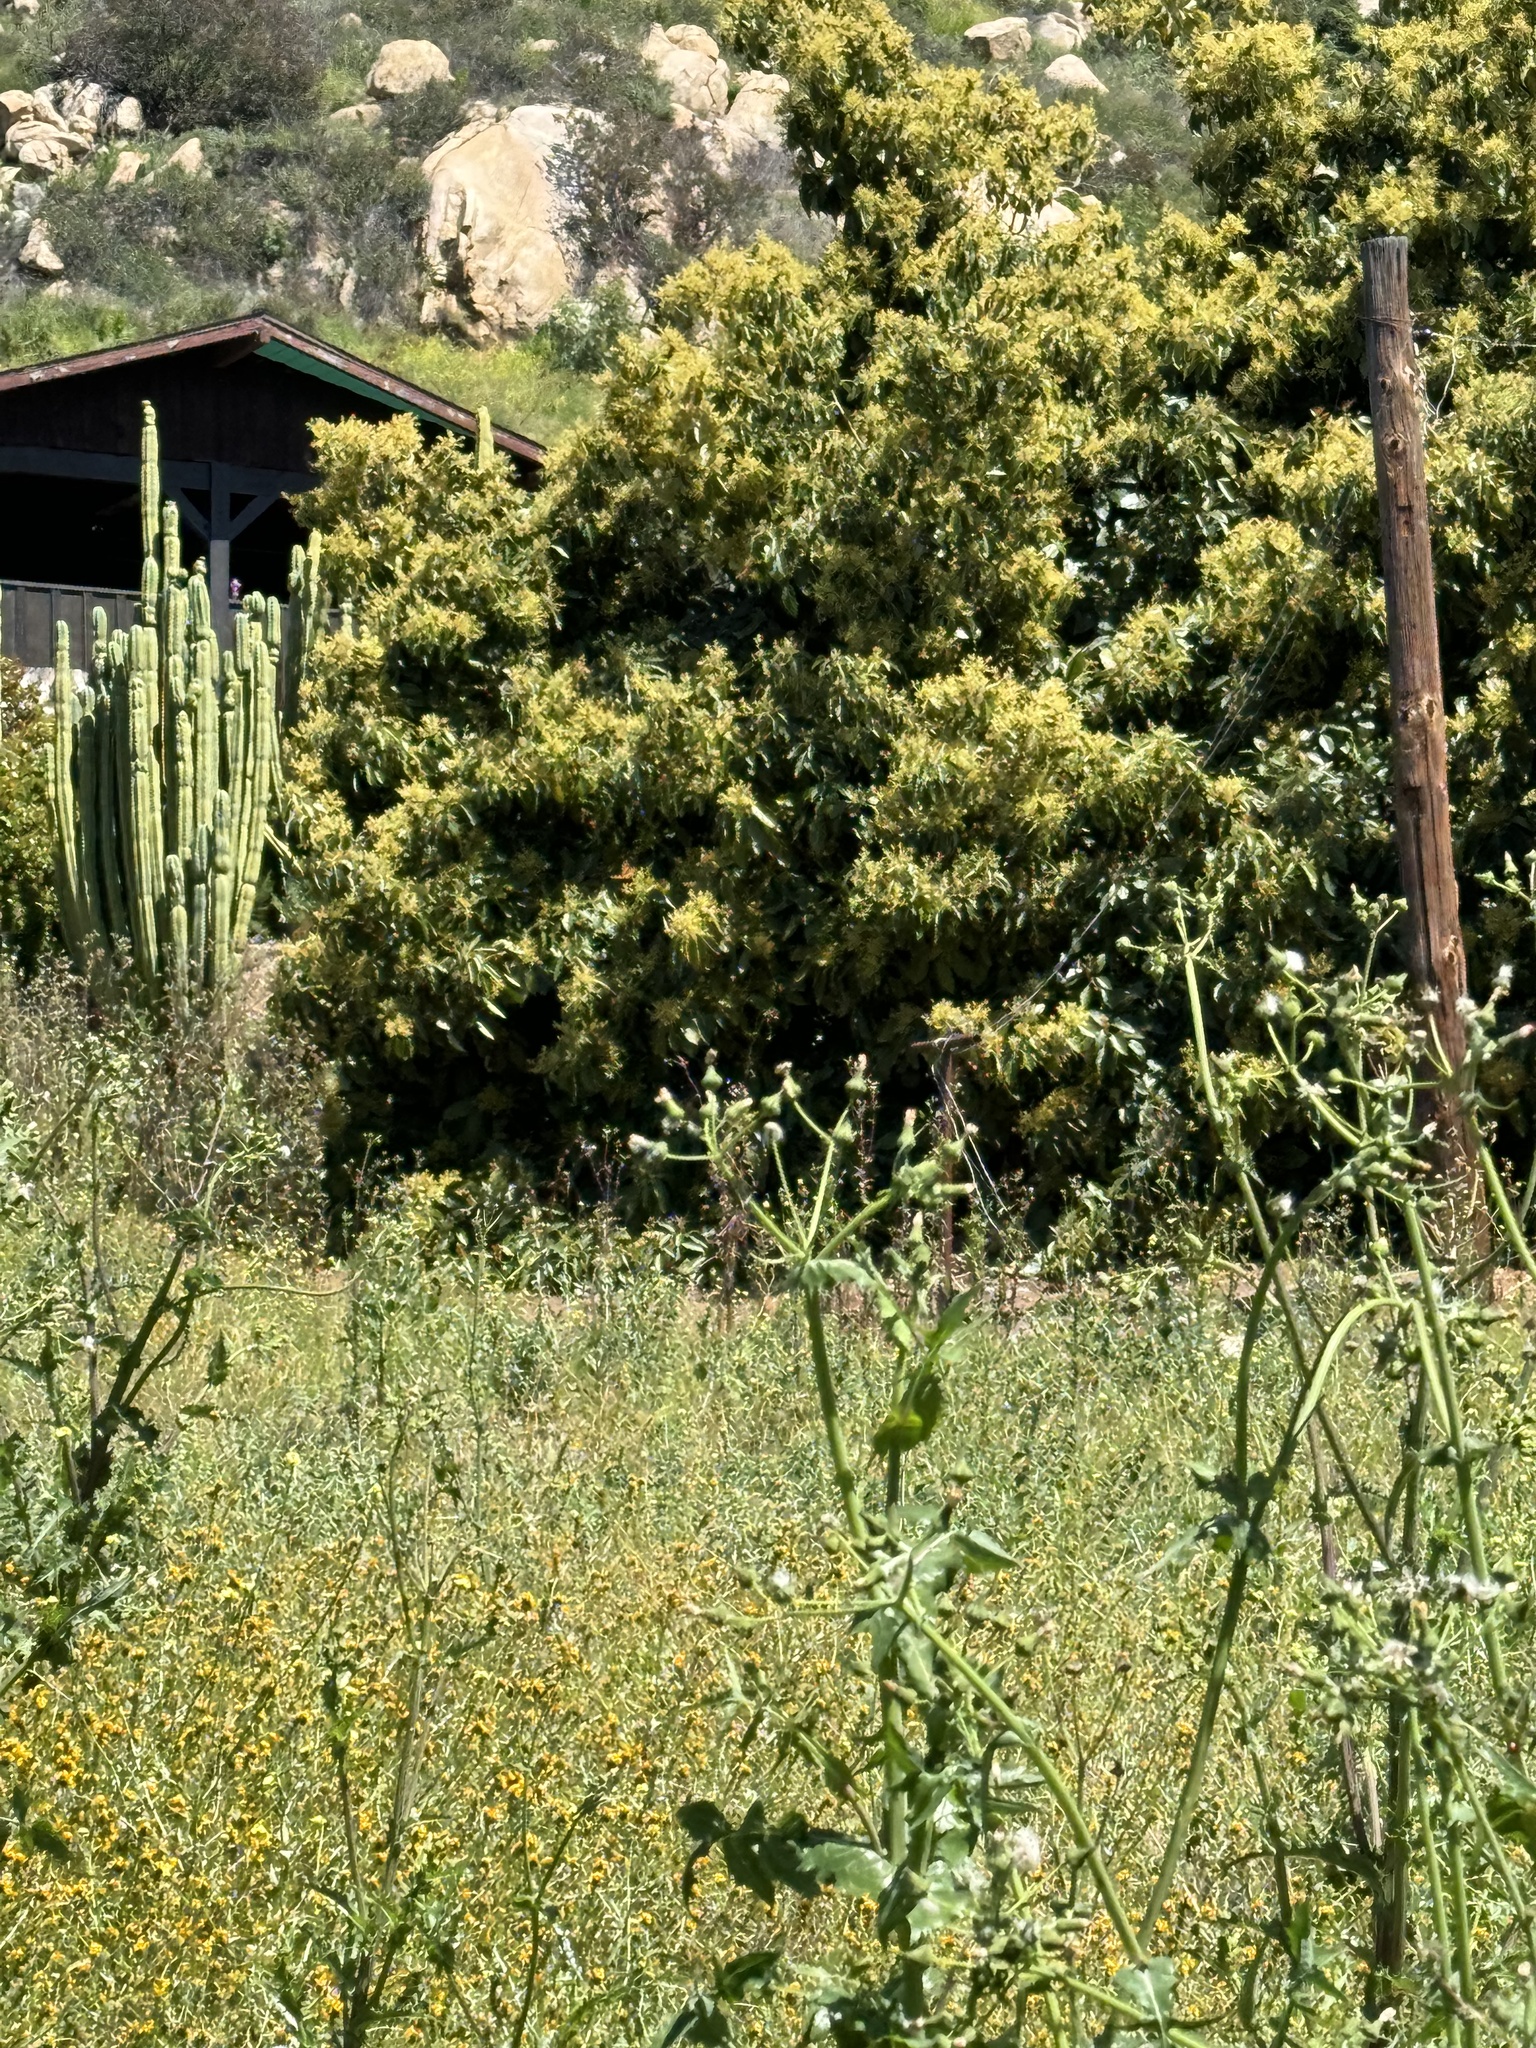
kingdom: Animalia
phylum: Arthropoda
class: Insecta
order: Lepidoptera
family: Nymphalidae
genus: Danaus
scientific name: Danaus plexippus
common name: Monarch
